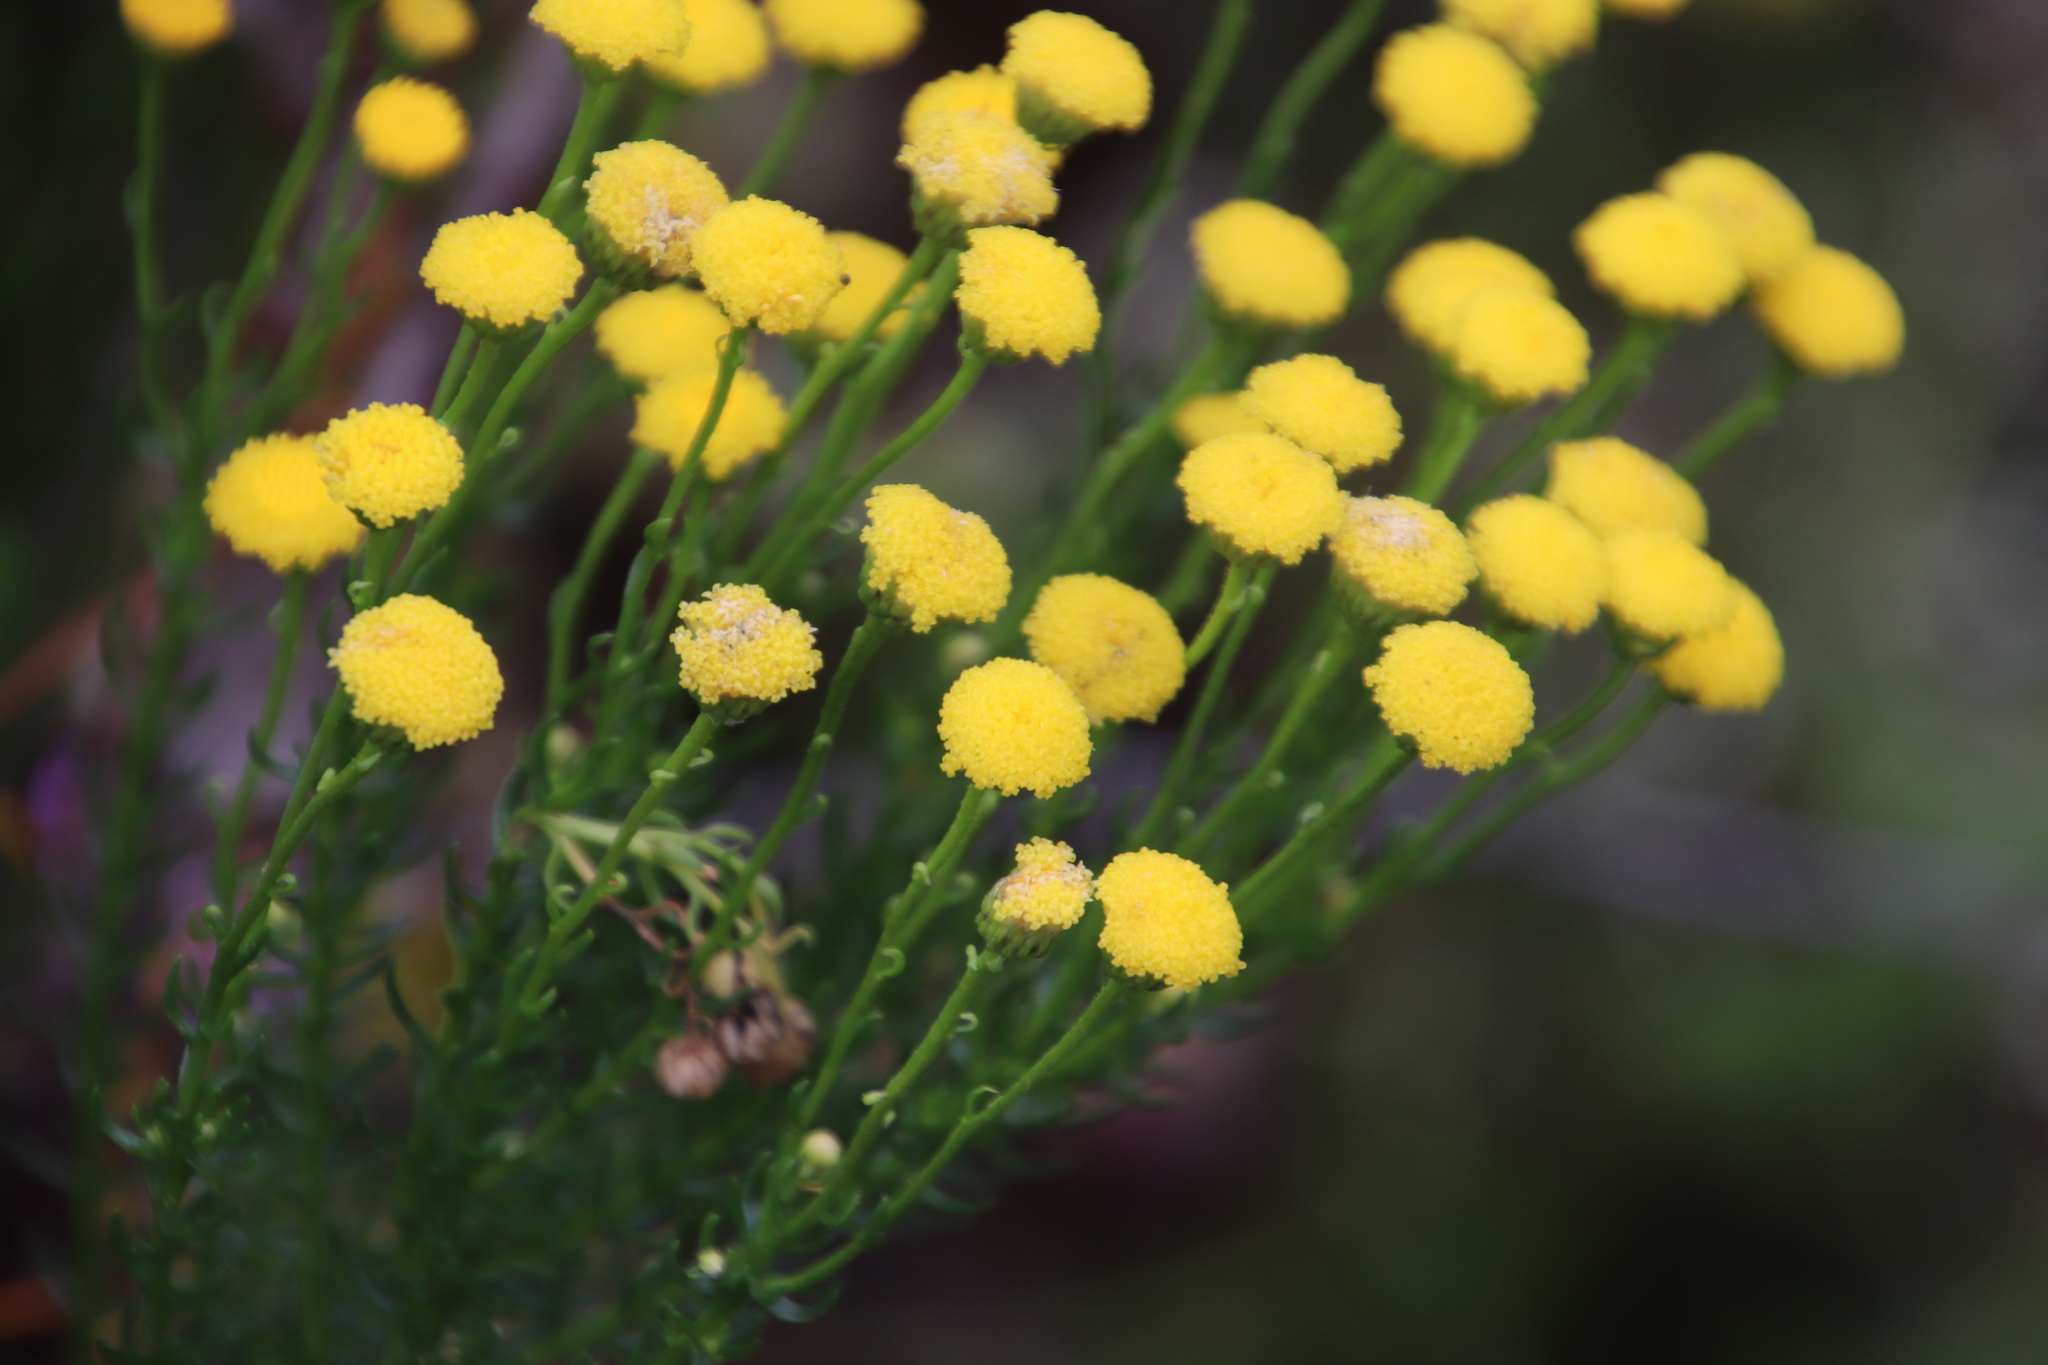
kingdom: Plantae
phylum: Tracheophyta
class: Magnoliopsida
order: Asterales
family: Asteraceae
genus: Chrysocoma
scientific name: Chrysocoma cernua
